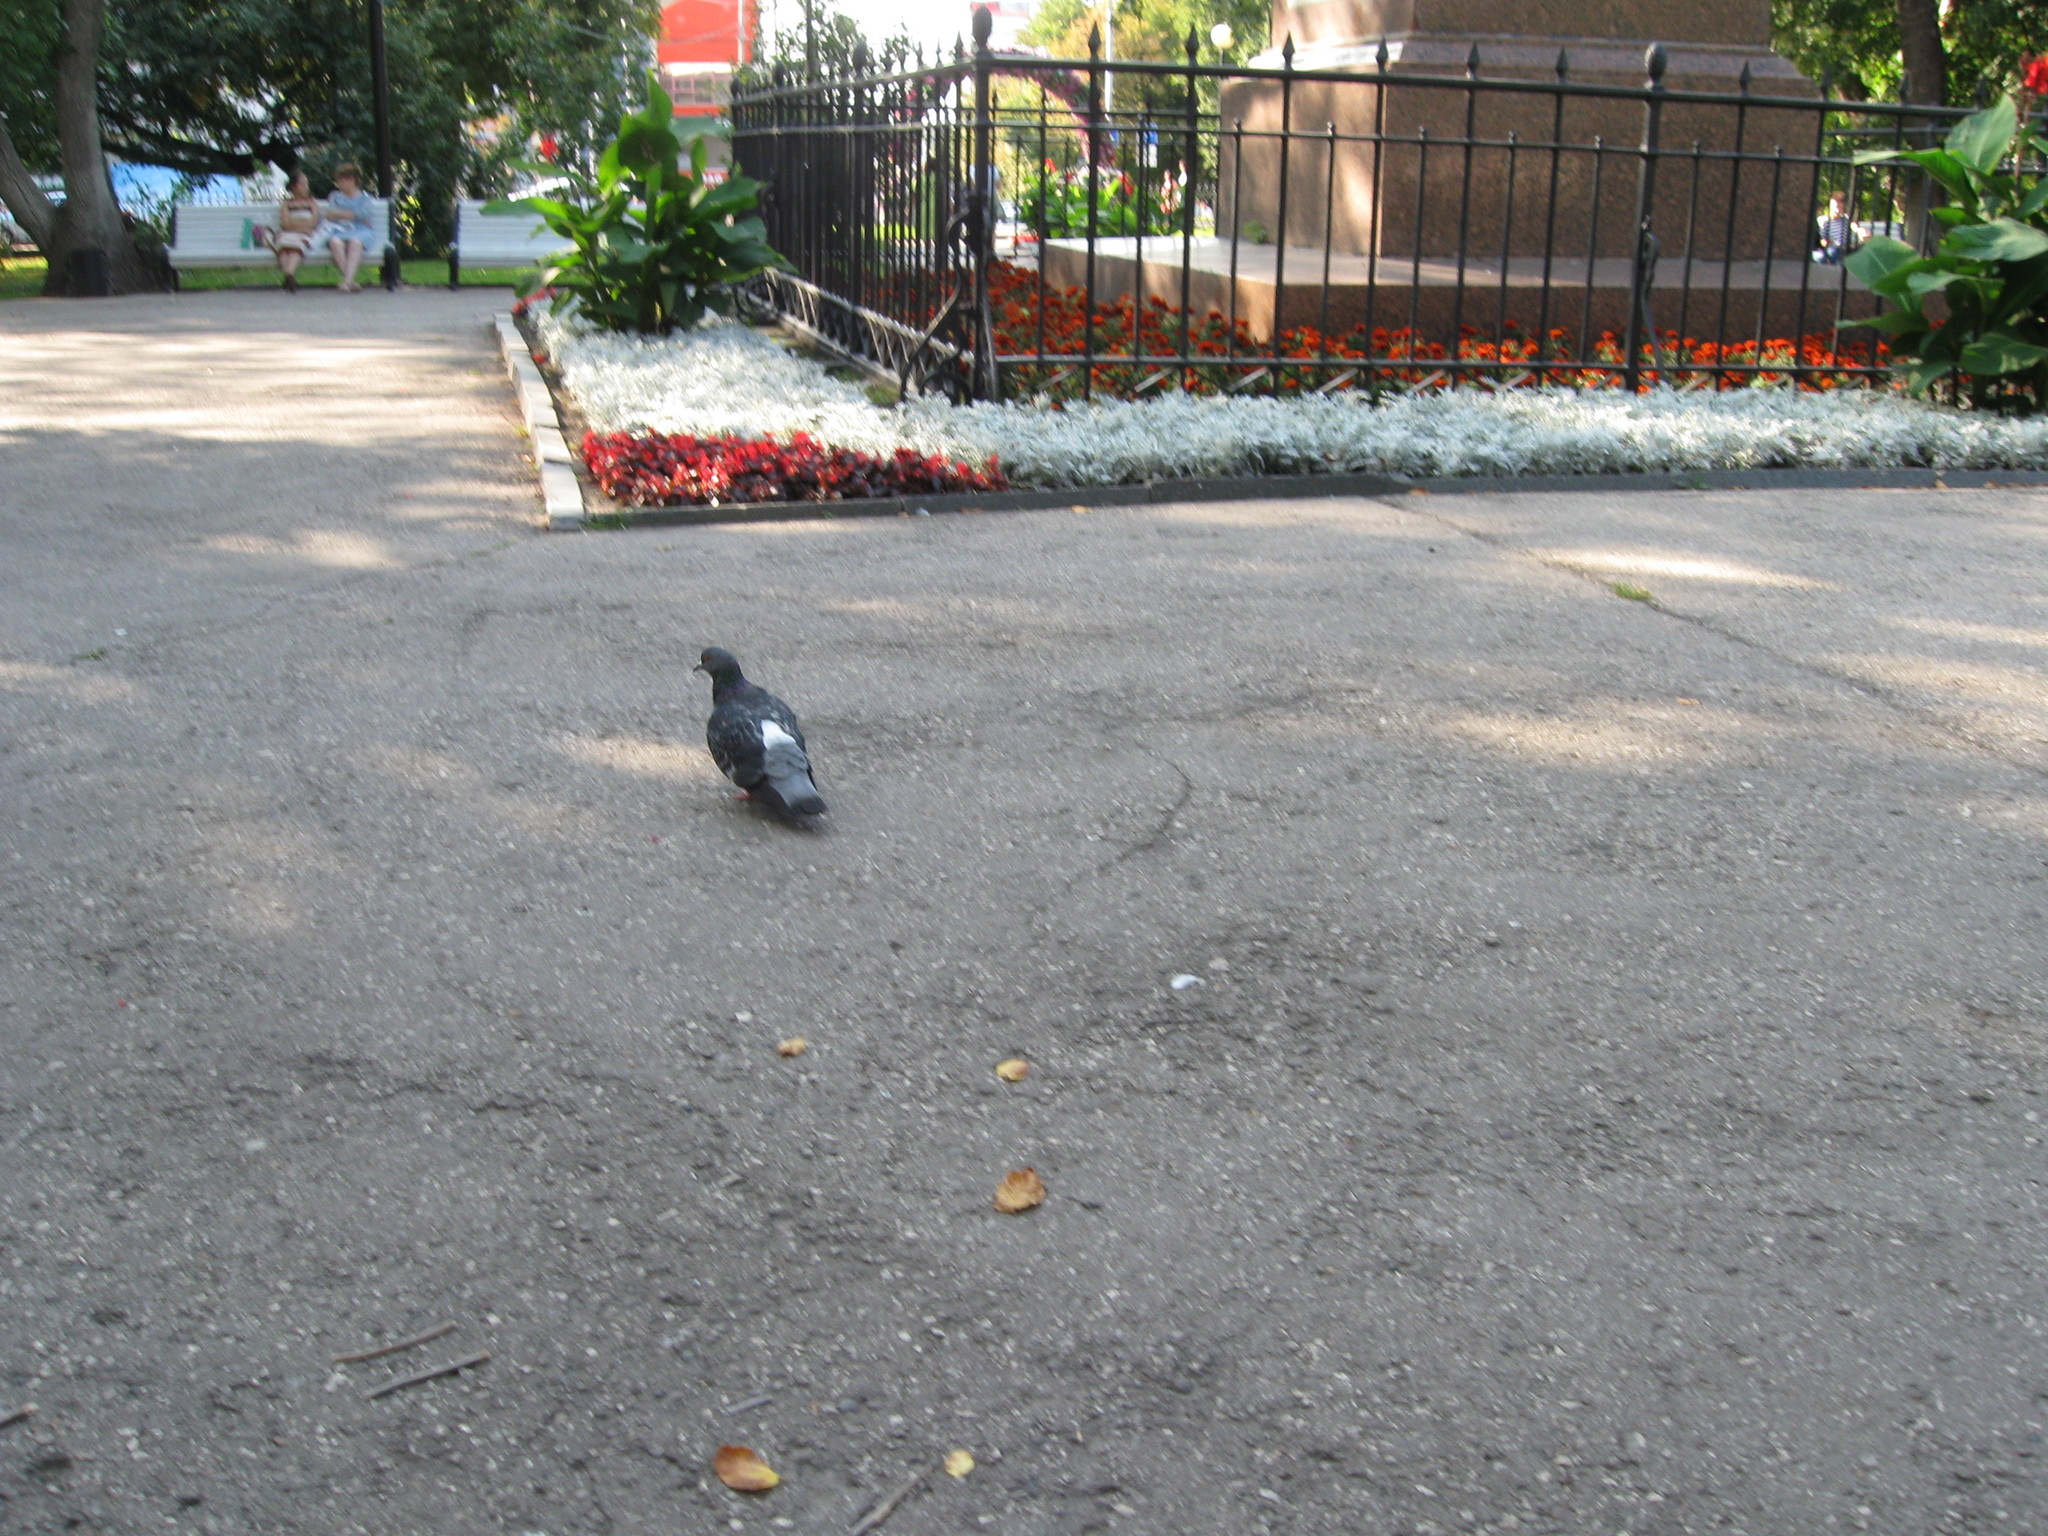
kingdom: Animalia
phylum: Chordata
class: Aves
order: Columbiformes
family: Columbidae
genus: Columba
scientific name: Columba livia
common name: Rock pigeon
